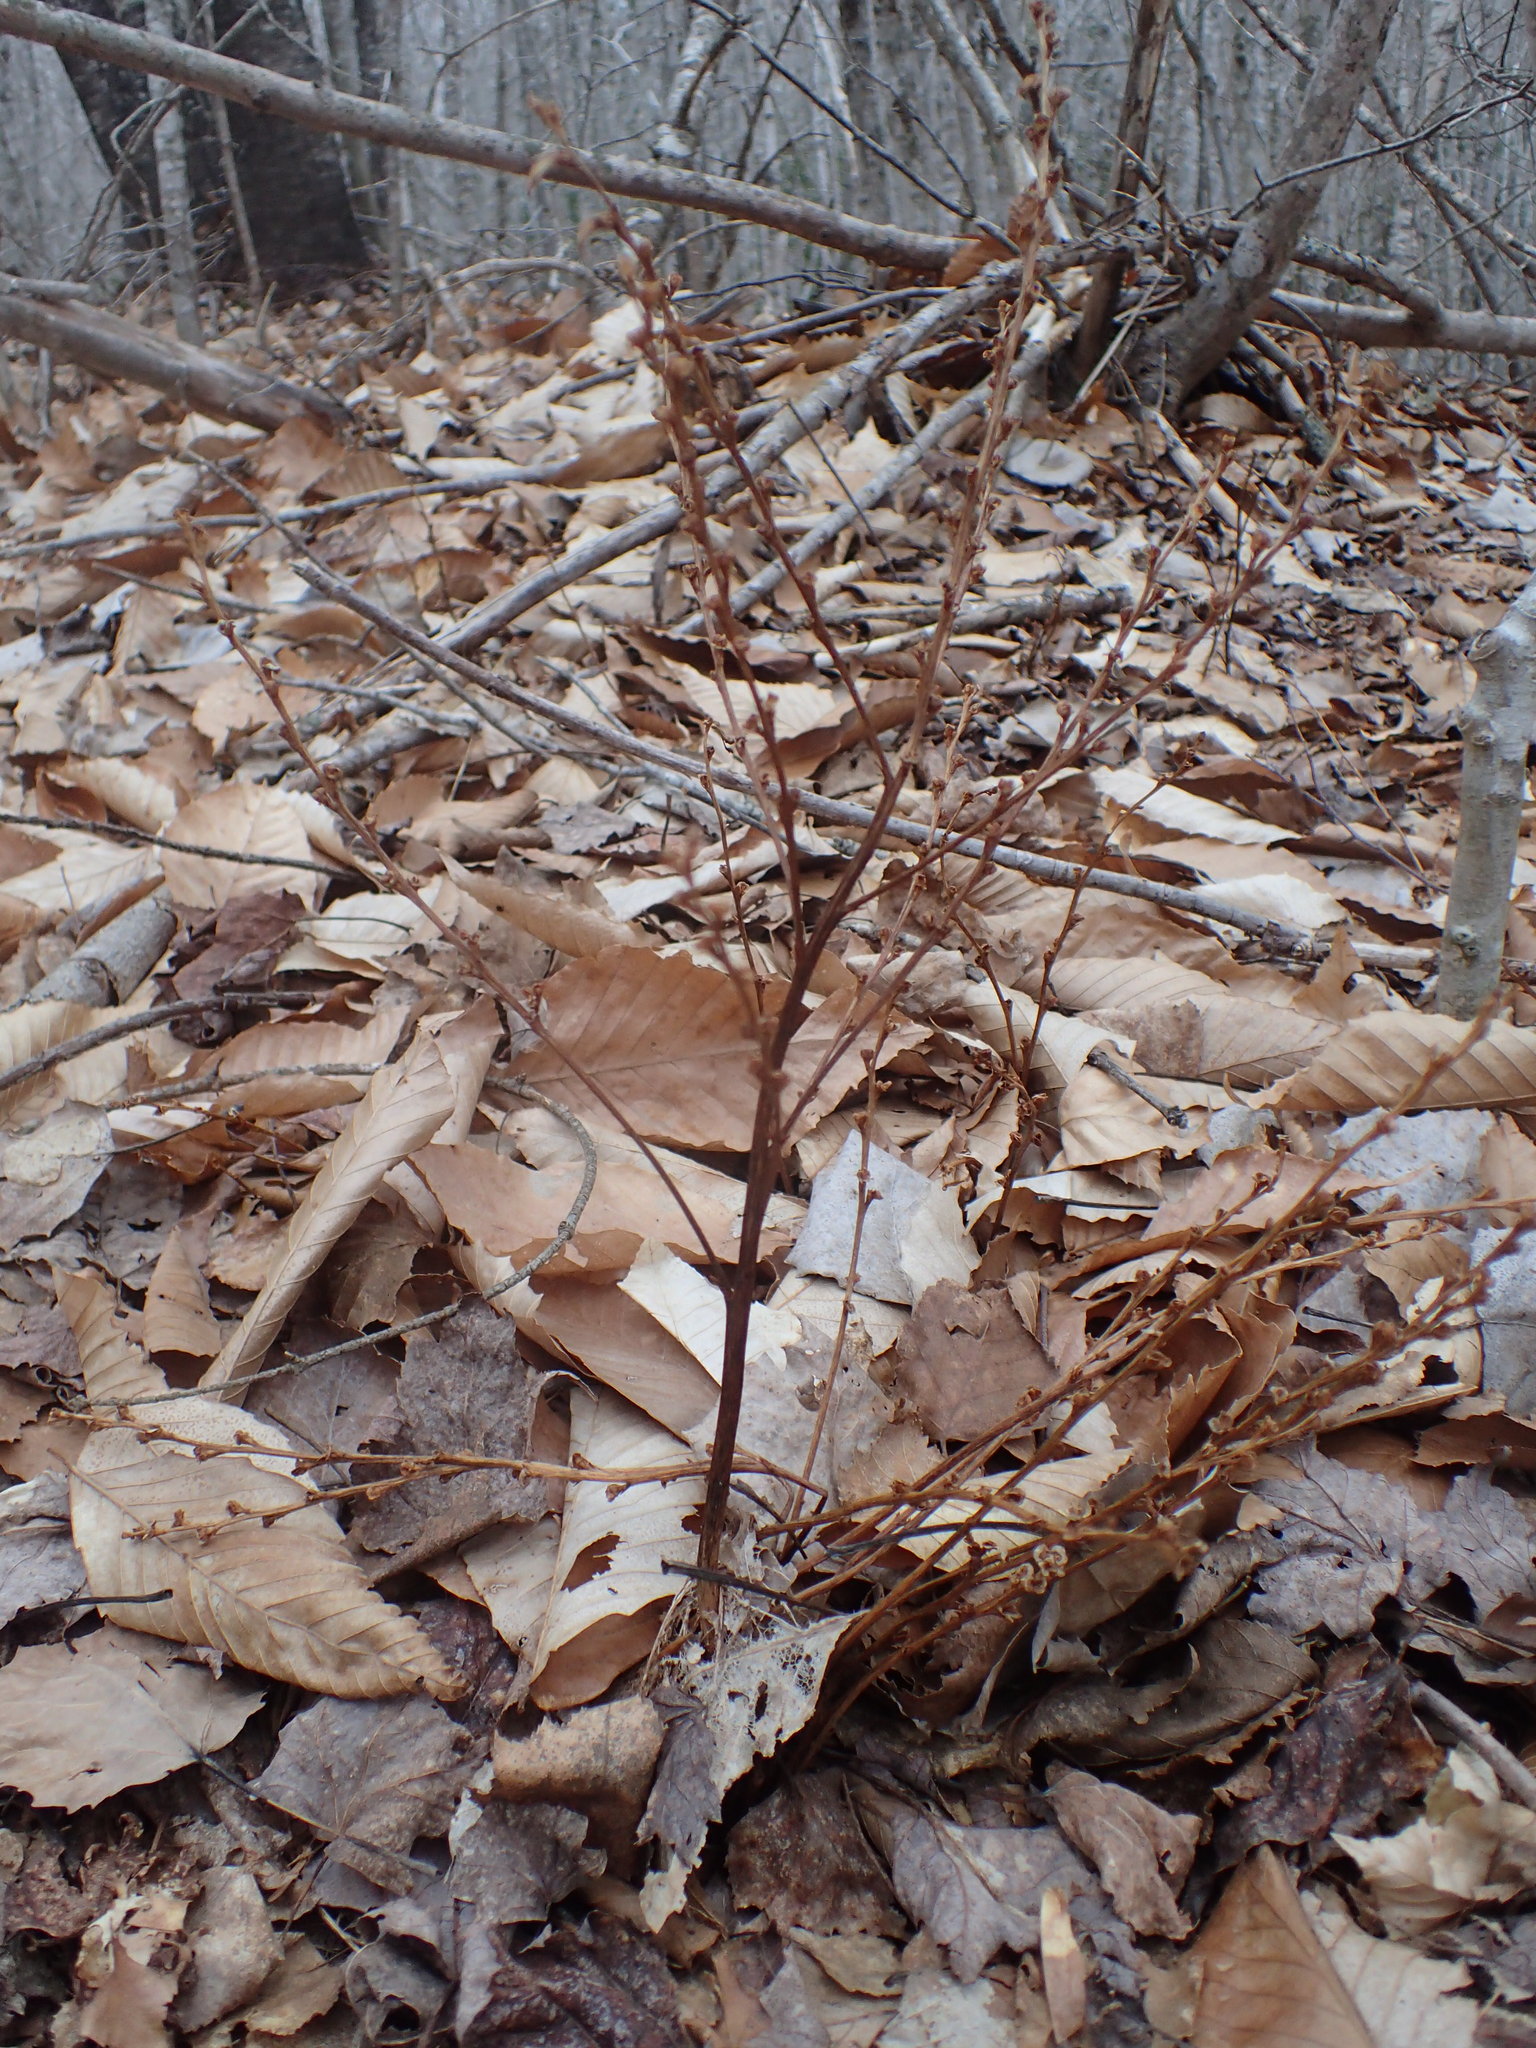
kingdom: Plantae
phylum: Tracheophyta
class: Magnoliopsida
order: Lamiales
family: Orobanchaceae
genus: Epifagus
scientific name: Epifagus virginiana
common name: Beechdrops
